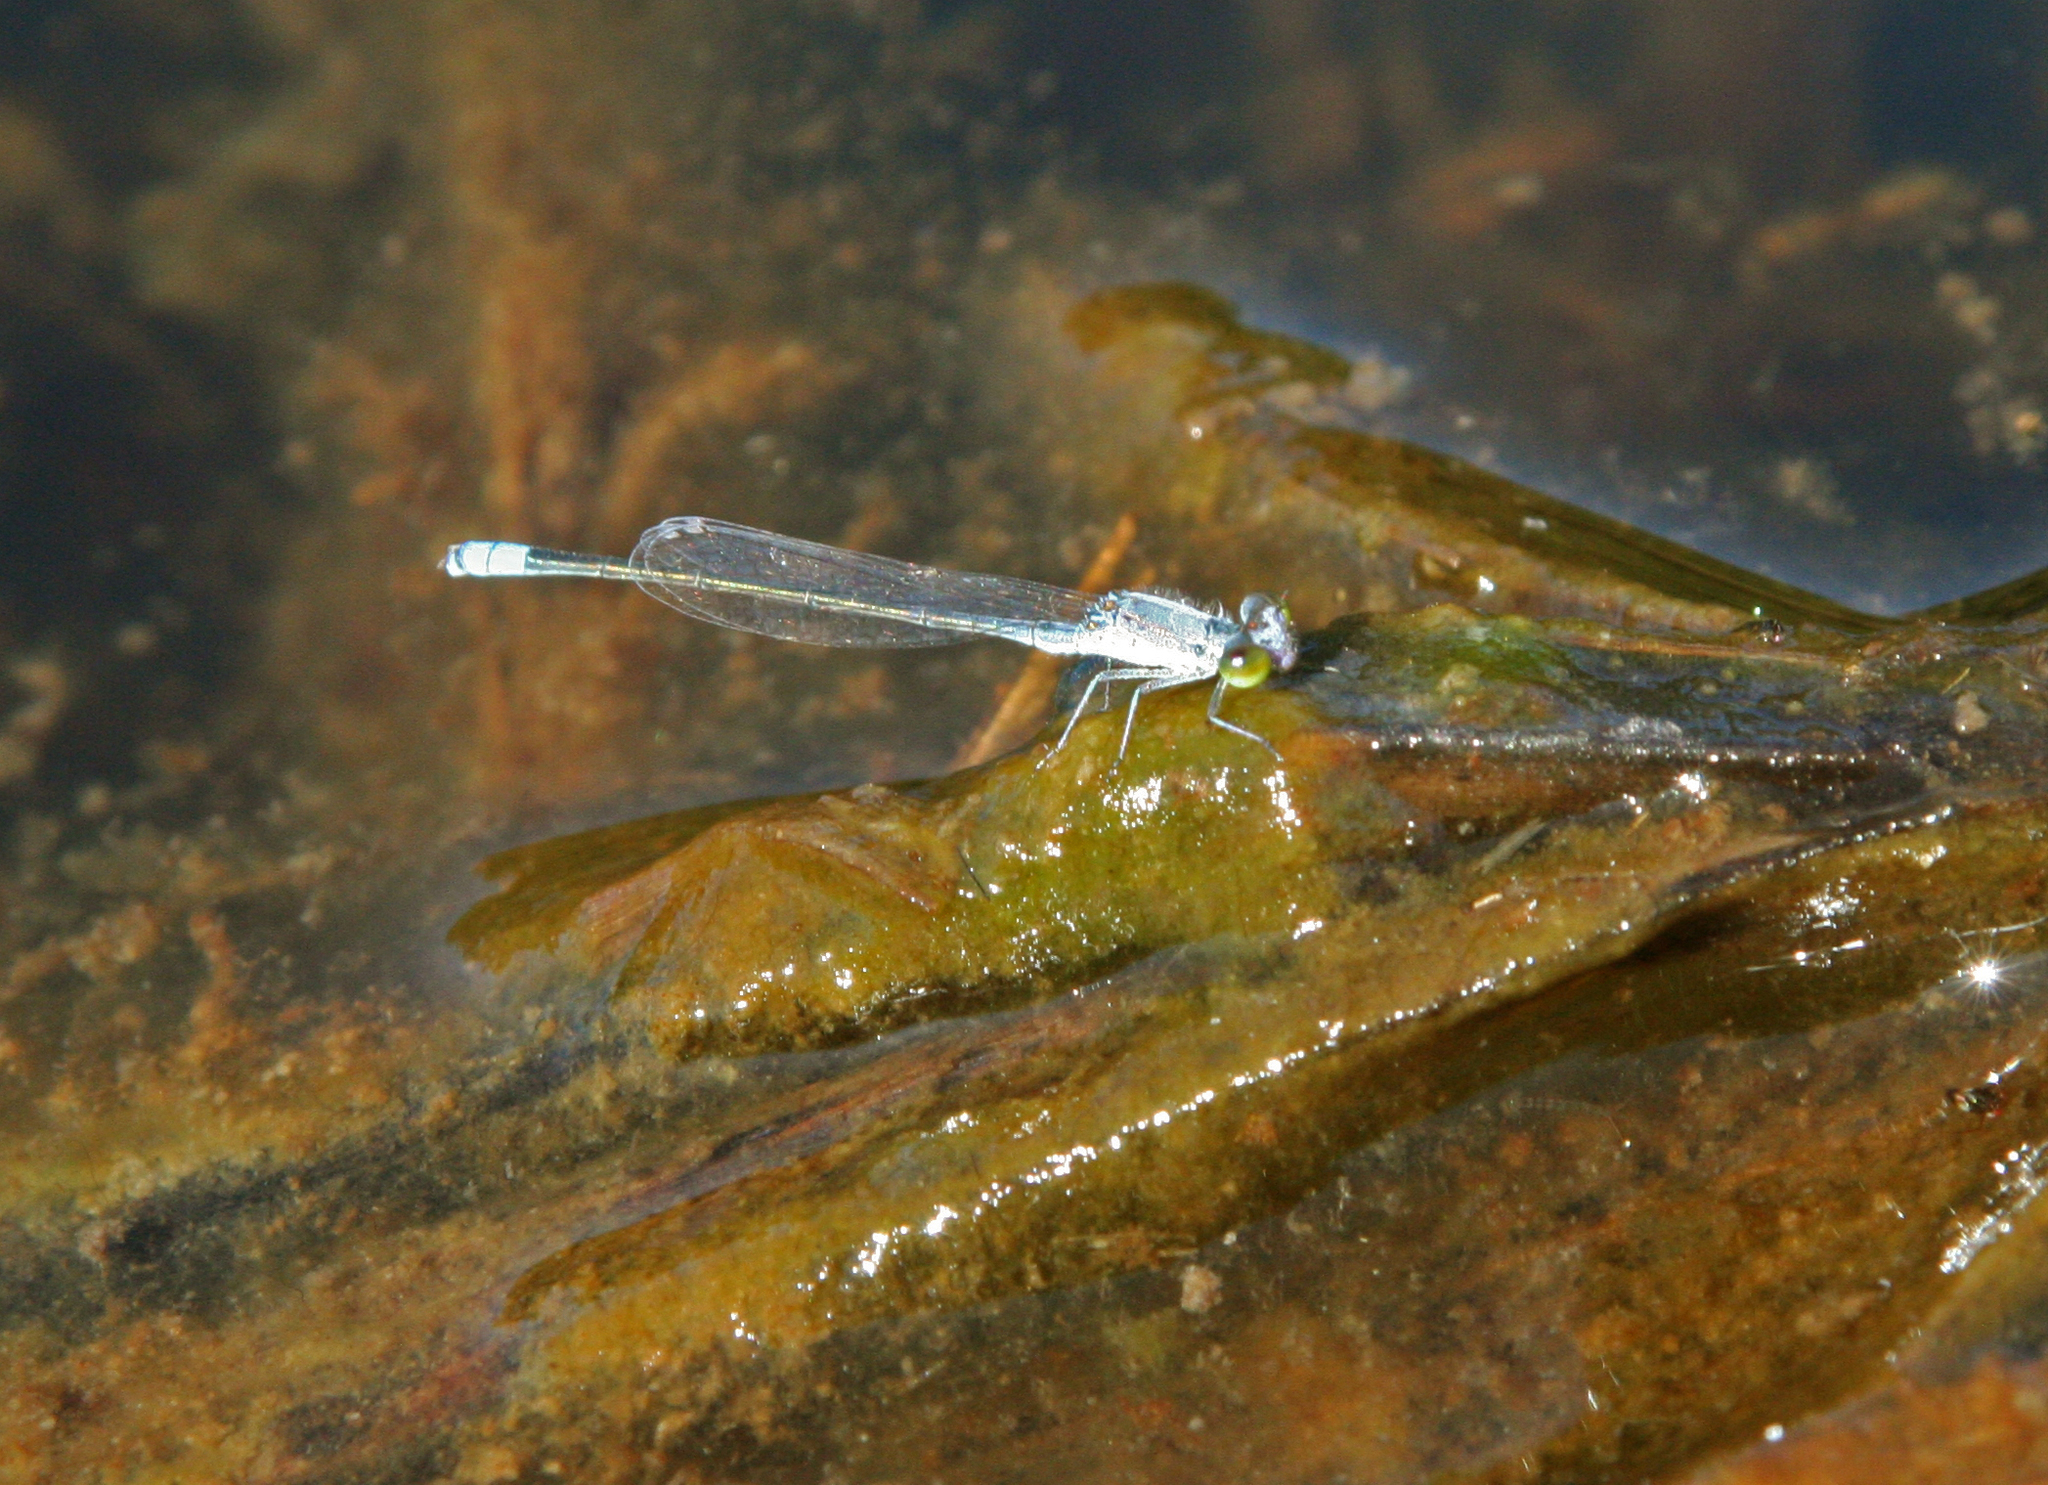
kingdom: Animalia
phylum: Arthropoda
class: Insecta
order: Odonata
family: Coenagrionidae
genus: Paracercion
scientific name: Paracercion calamorum
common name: Dusky lilysquatter
